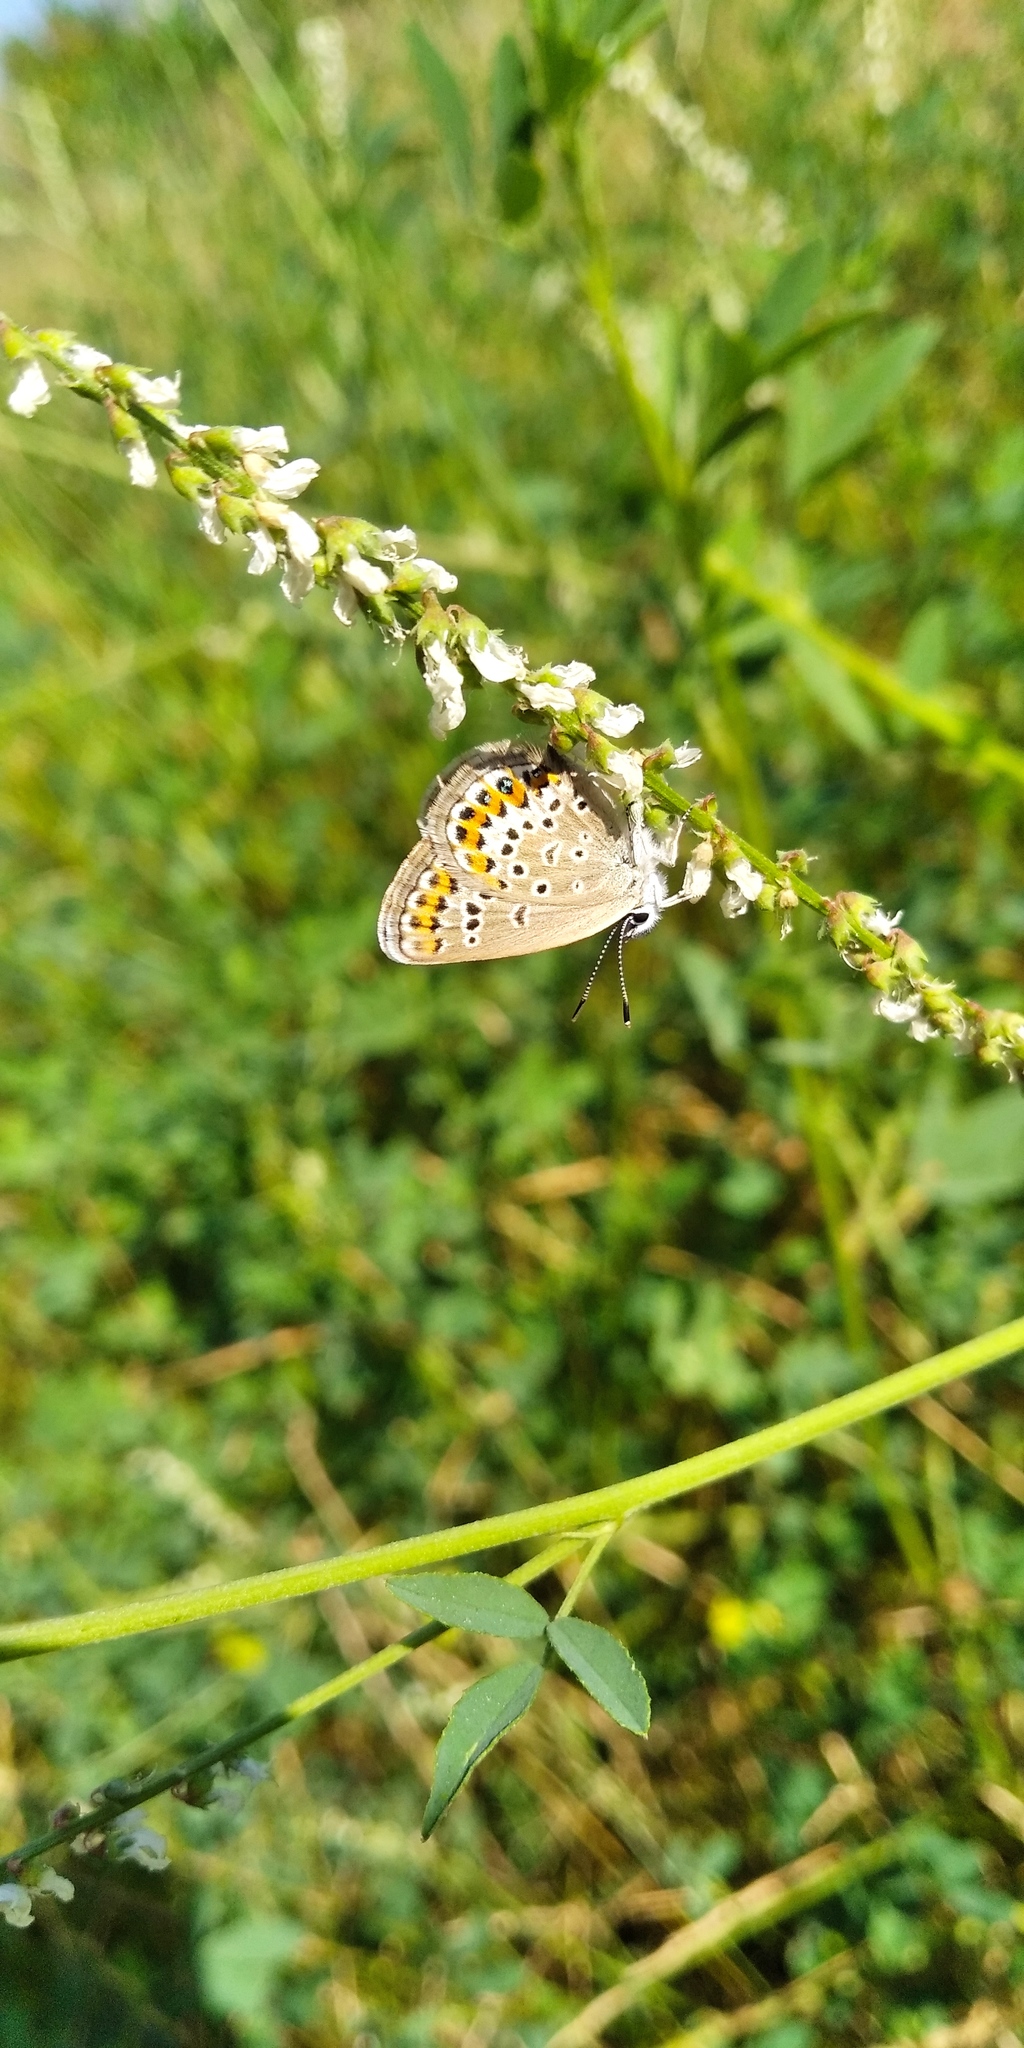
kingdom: Animalia
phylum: Arthropoda
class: Insecta
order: Lepidoptera
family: Lycaenidae
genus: Plebejus
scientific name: Plebejus argus
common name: Silver-studded blue
